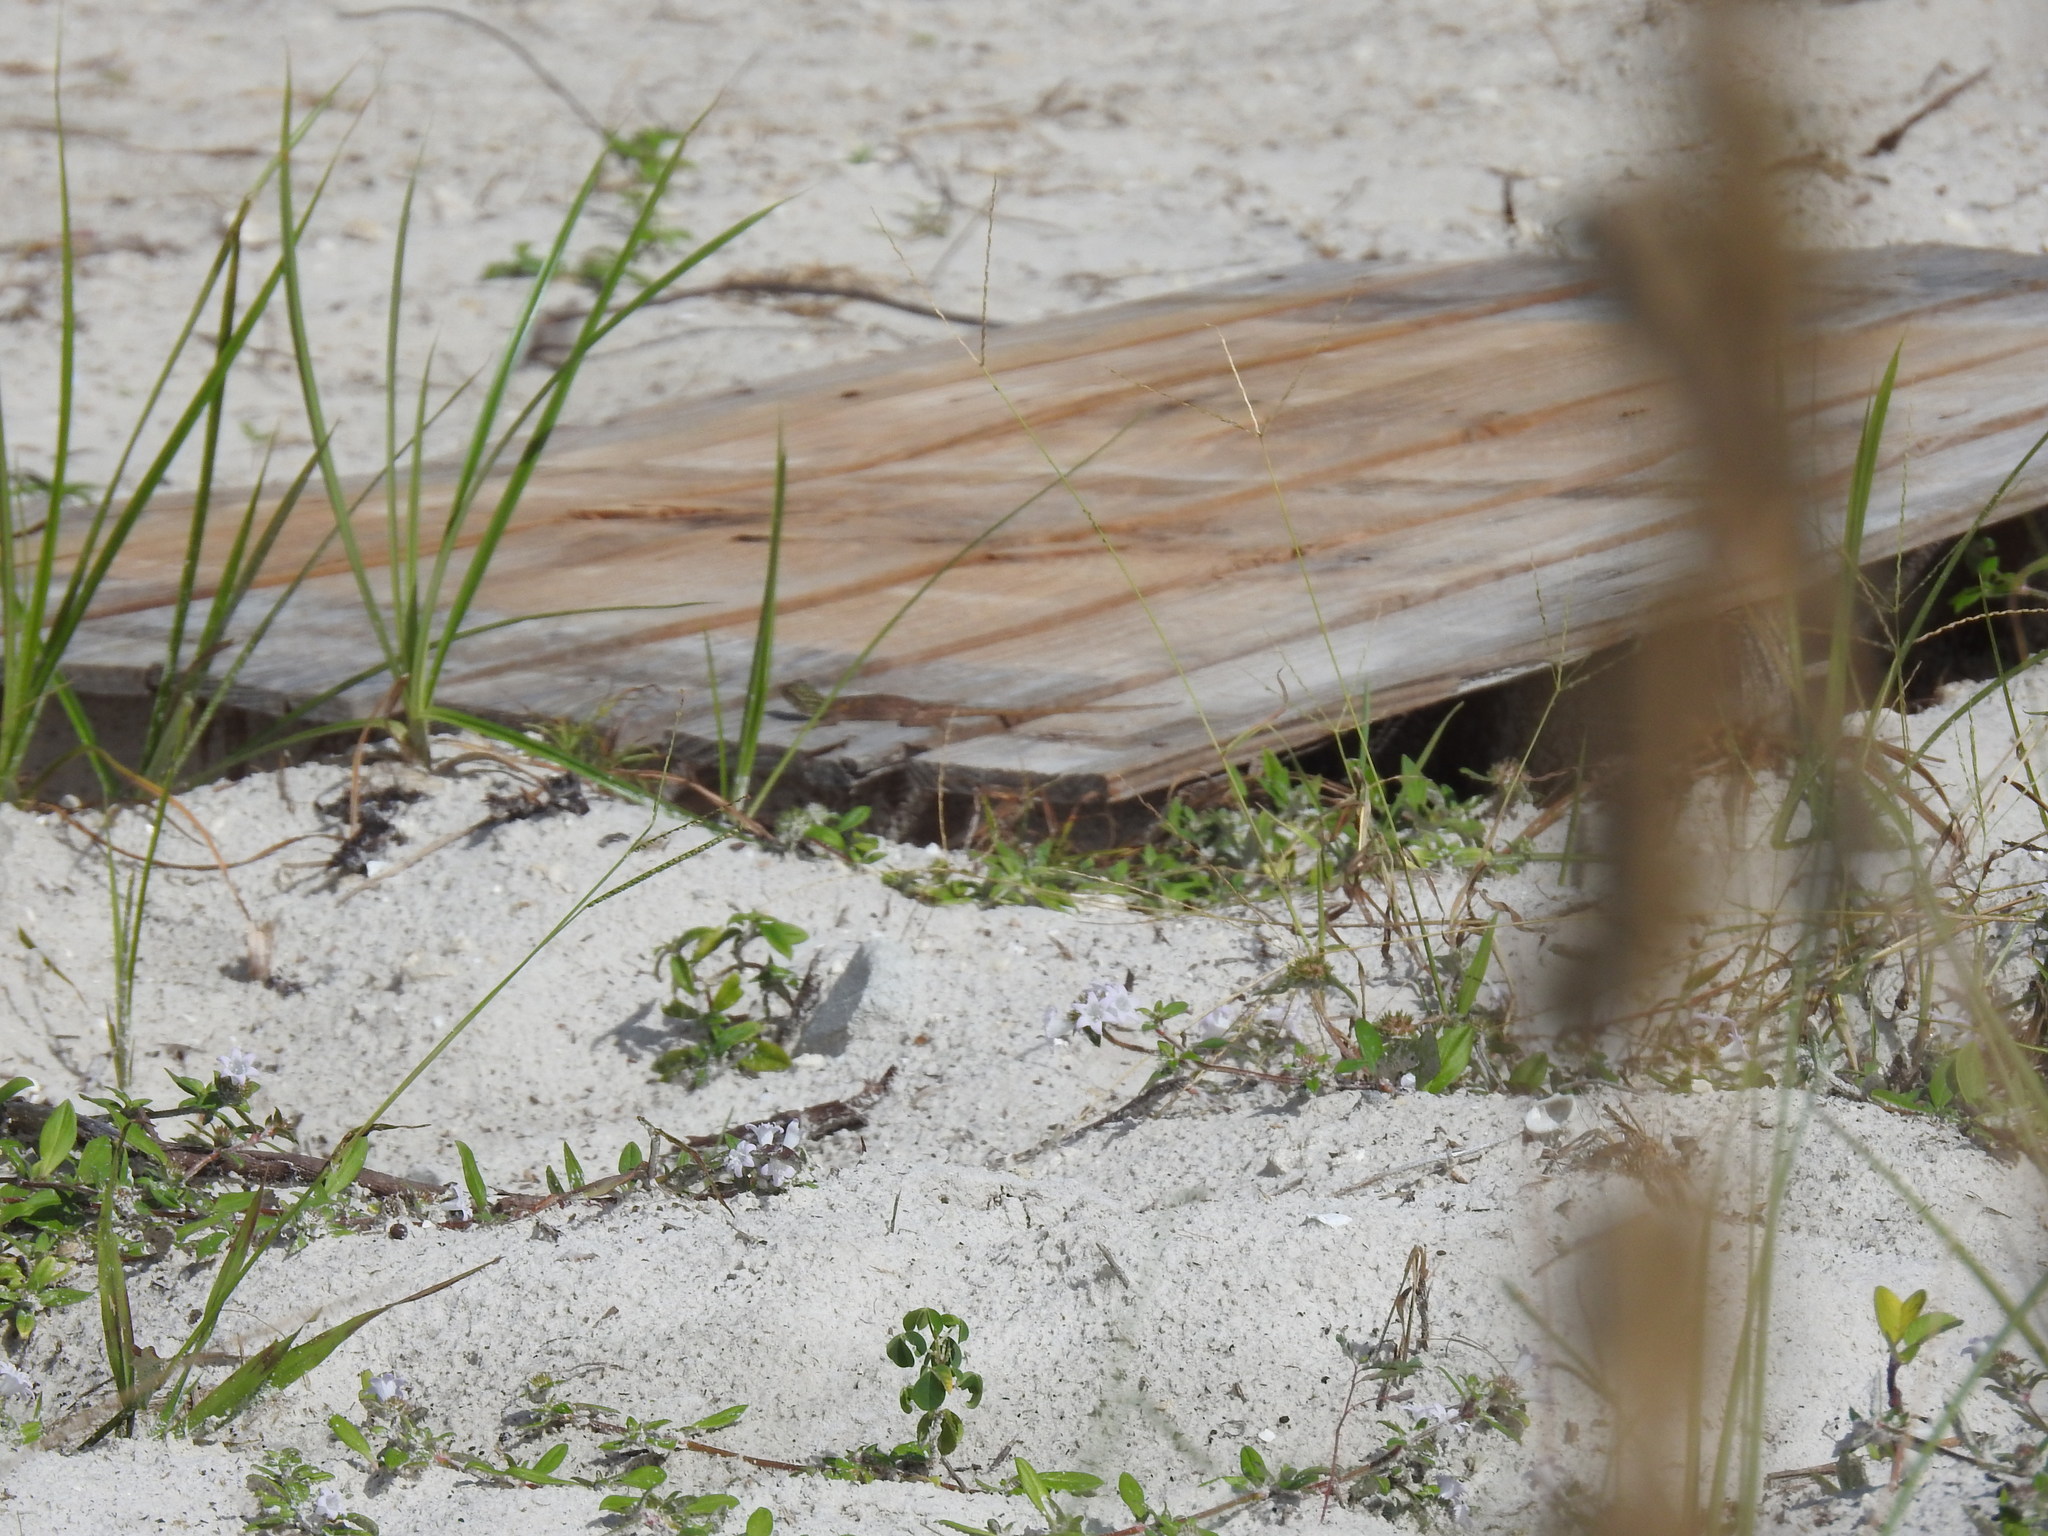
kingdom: Animalia
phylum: Chordata
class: Squamata
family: Agamidae
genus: Agama
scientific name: Agama picticauda
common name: Red-headed agama
